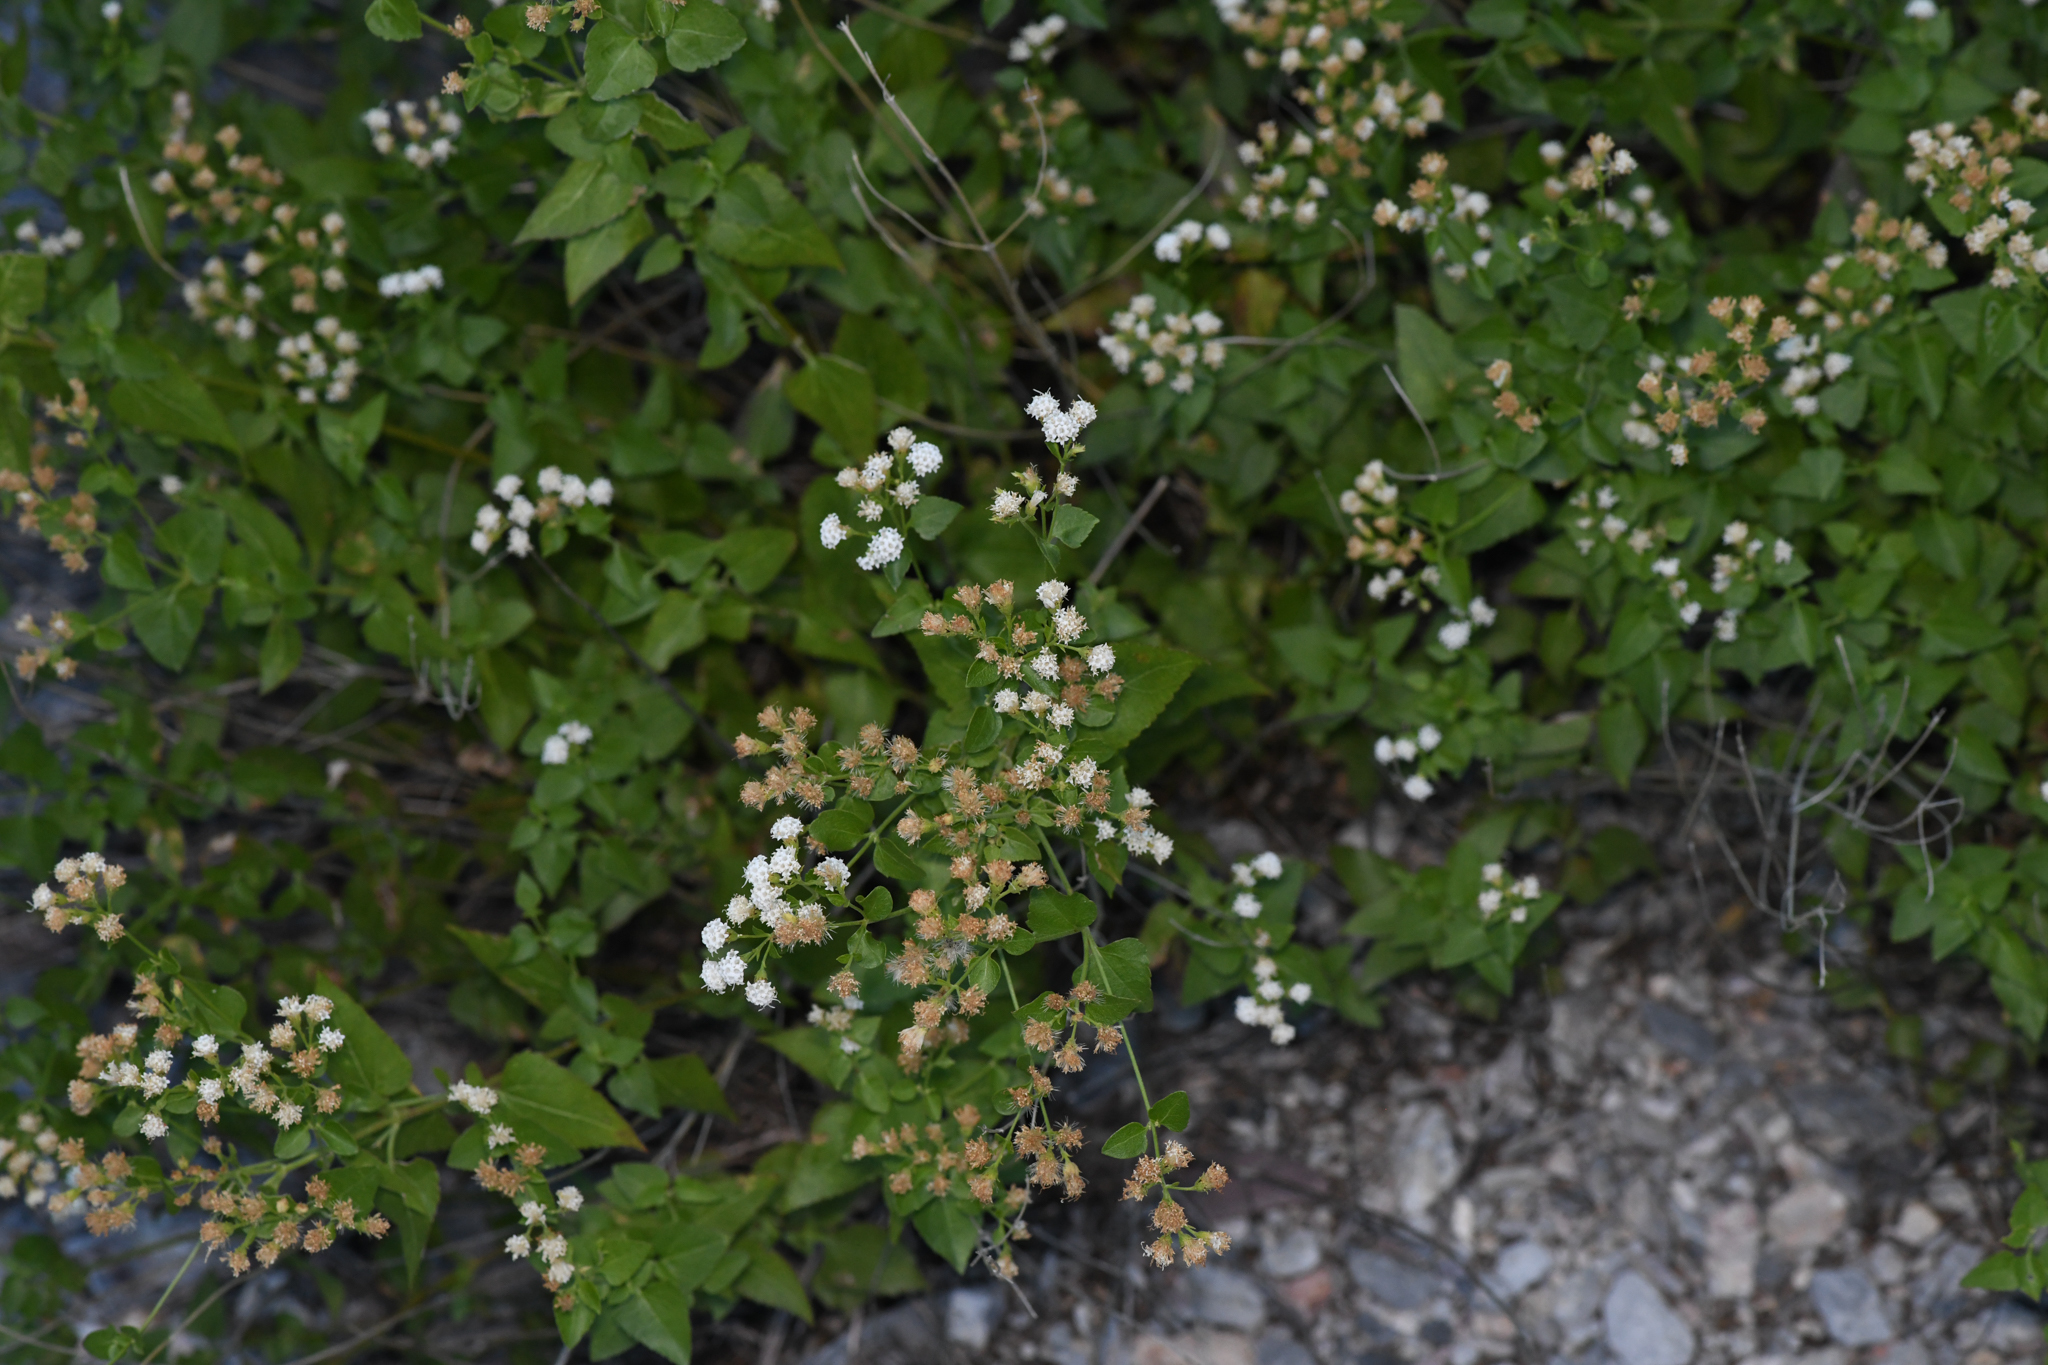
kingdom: Plantae
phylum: Tracheophyta
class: Magnoliopsida
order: Asterales
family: Asteraceae
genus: Ageratina
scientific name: Ageratina herbacea
